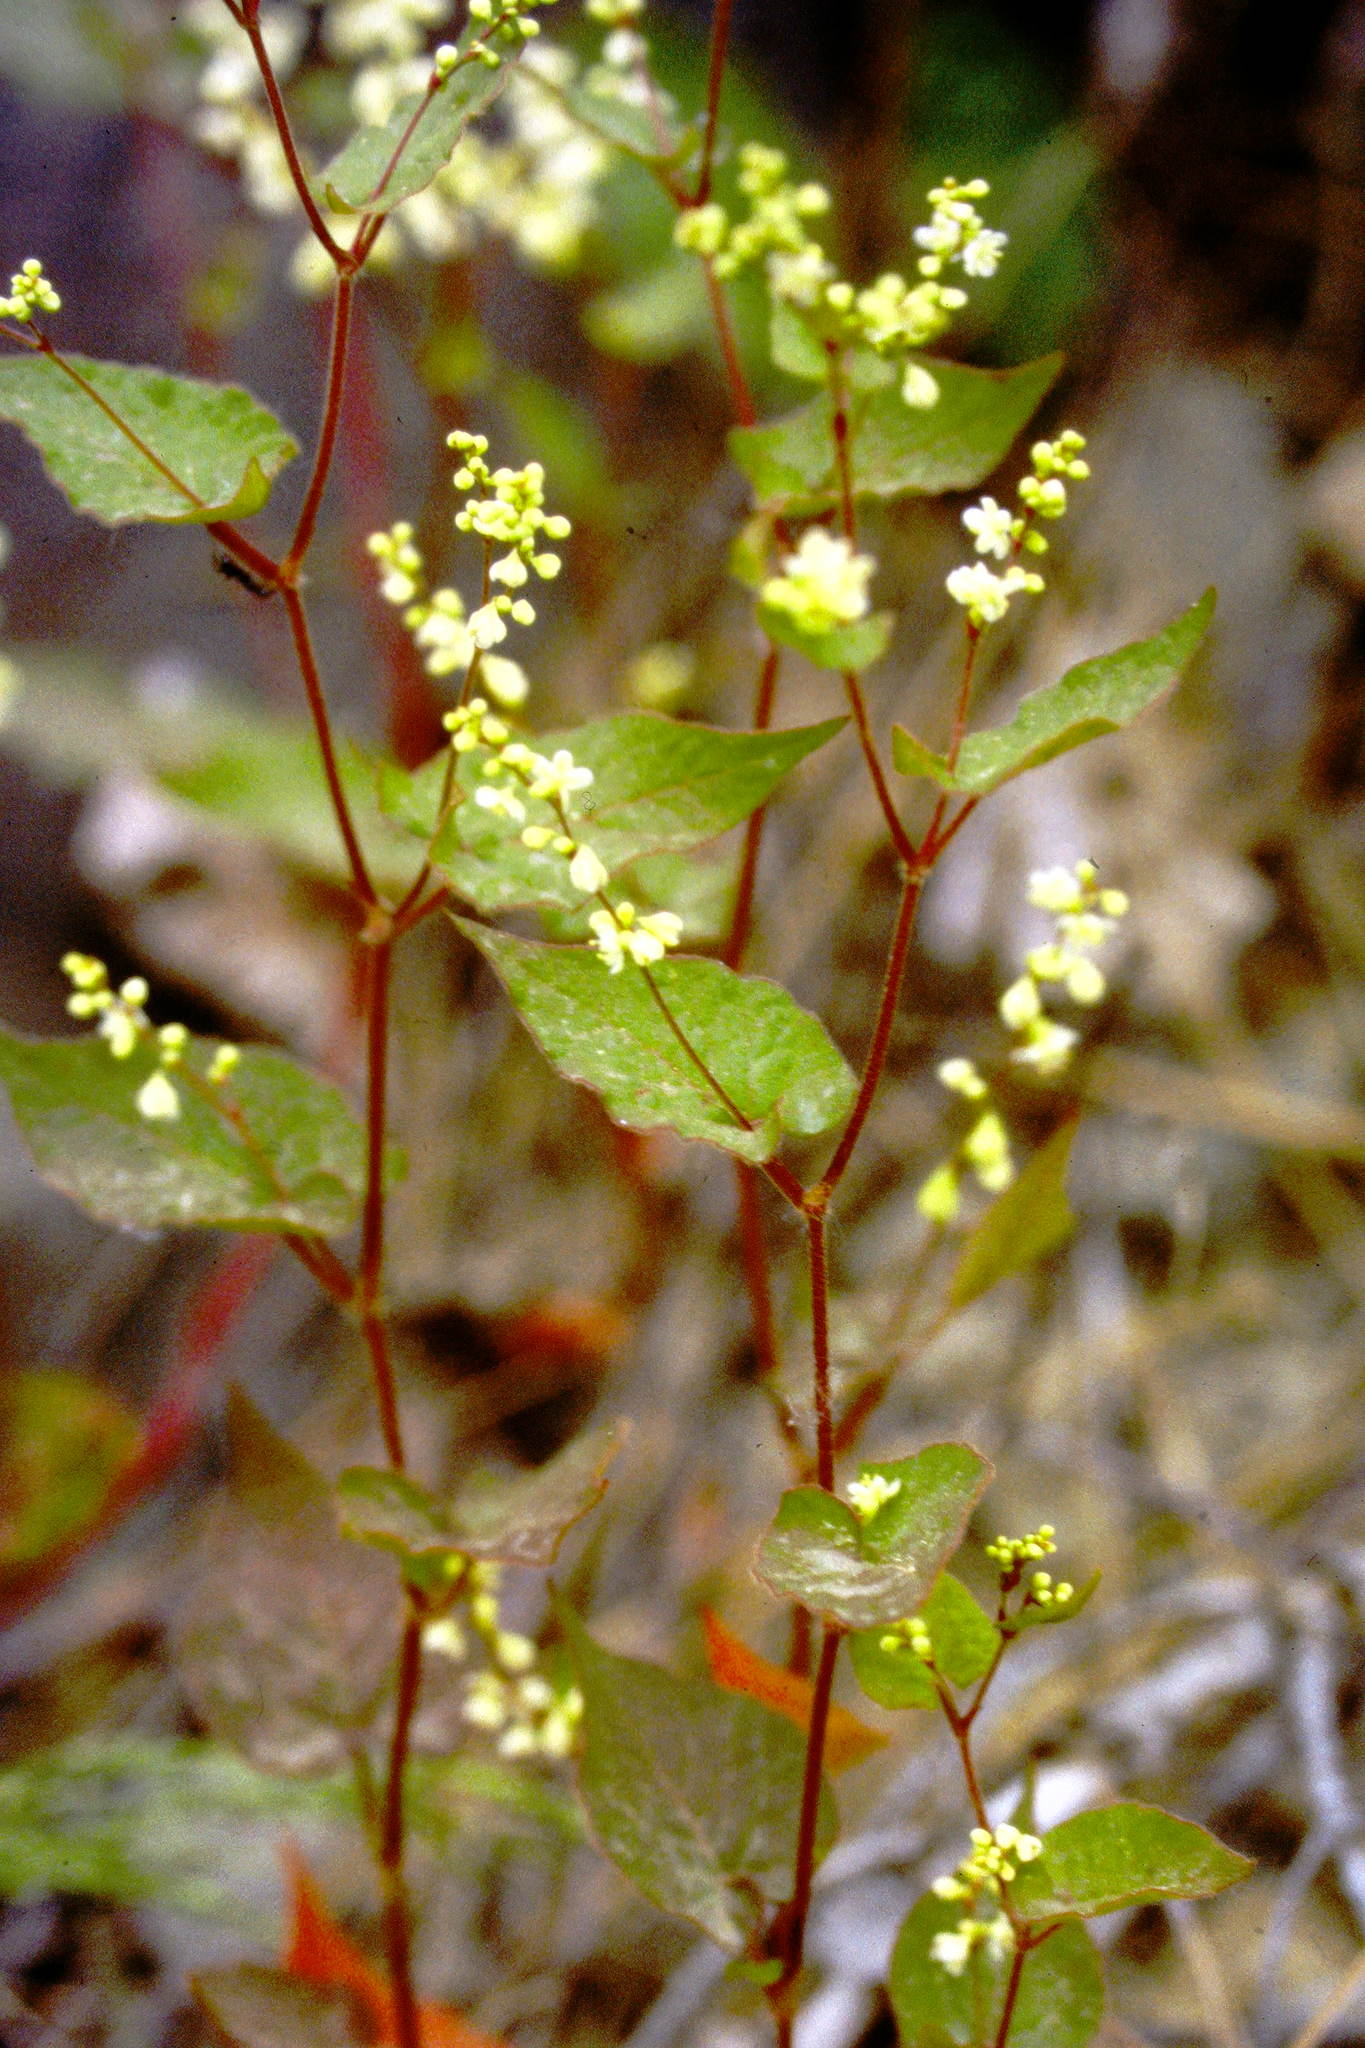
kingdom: Plantae
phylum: Tracheophyta
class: Magnoliopsida
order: Caryophyllales
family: Polygonaceae
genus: Parogonum
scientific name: Parogonum ciliinode
